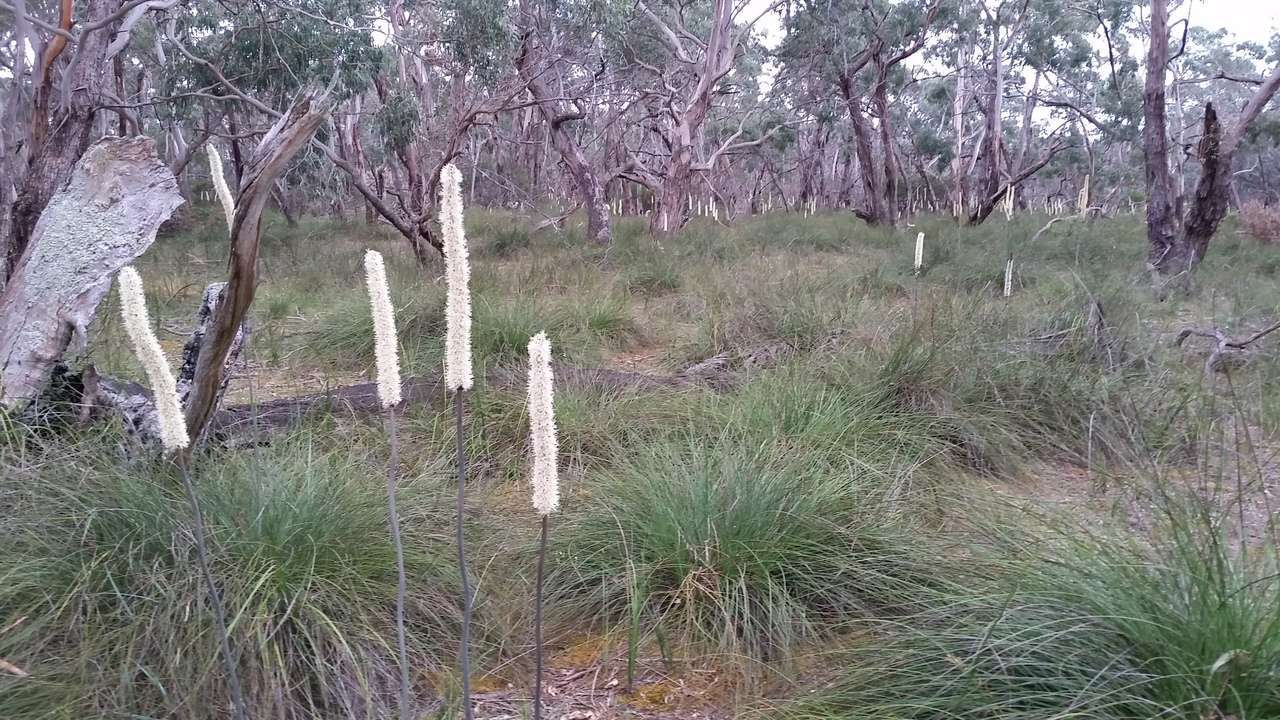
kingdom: Plantae
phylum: Tracheophyta
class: Liliopsida
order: Asparagales
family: Asphodelaceae
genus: Xanthorrhoea
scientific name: Xanthorrhoea minor
